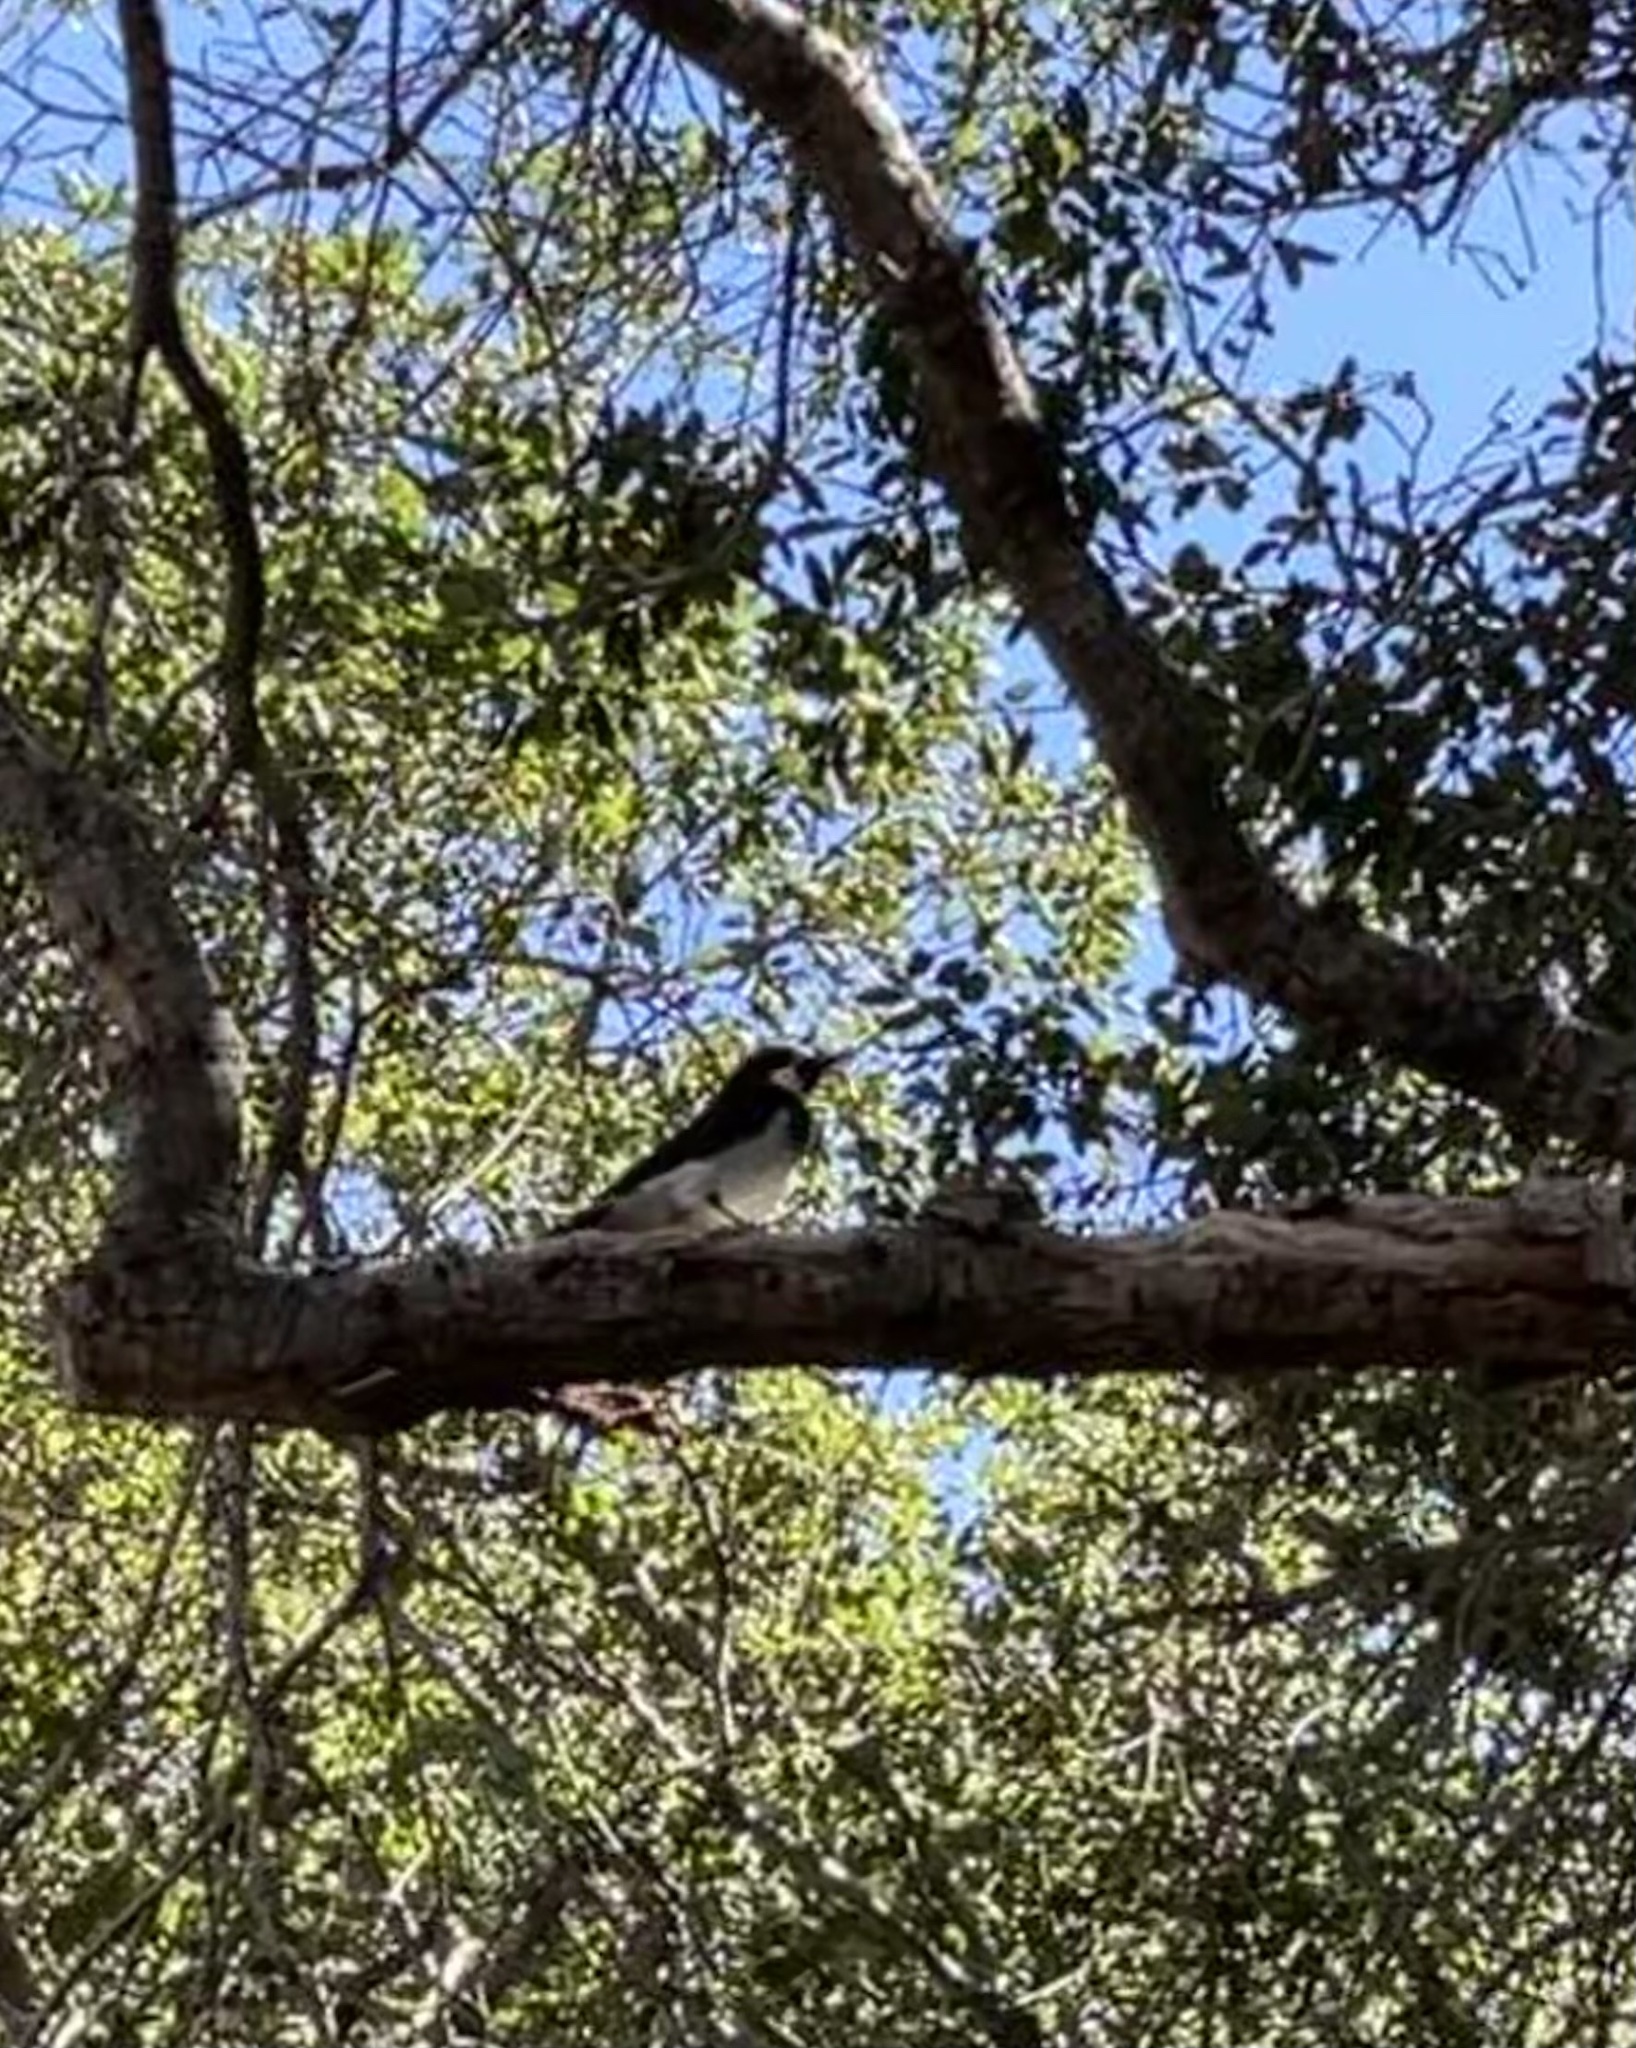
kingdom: Animalia
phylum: Chordata
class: Aves
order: Piciformes
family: Picidae
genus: Melanerpes
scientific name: Melanerpes formicivorus
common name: Acorn woodpecker
